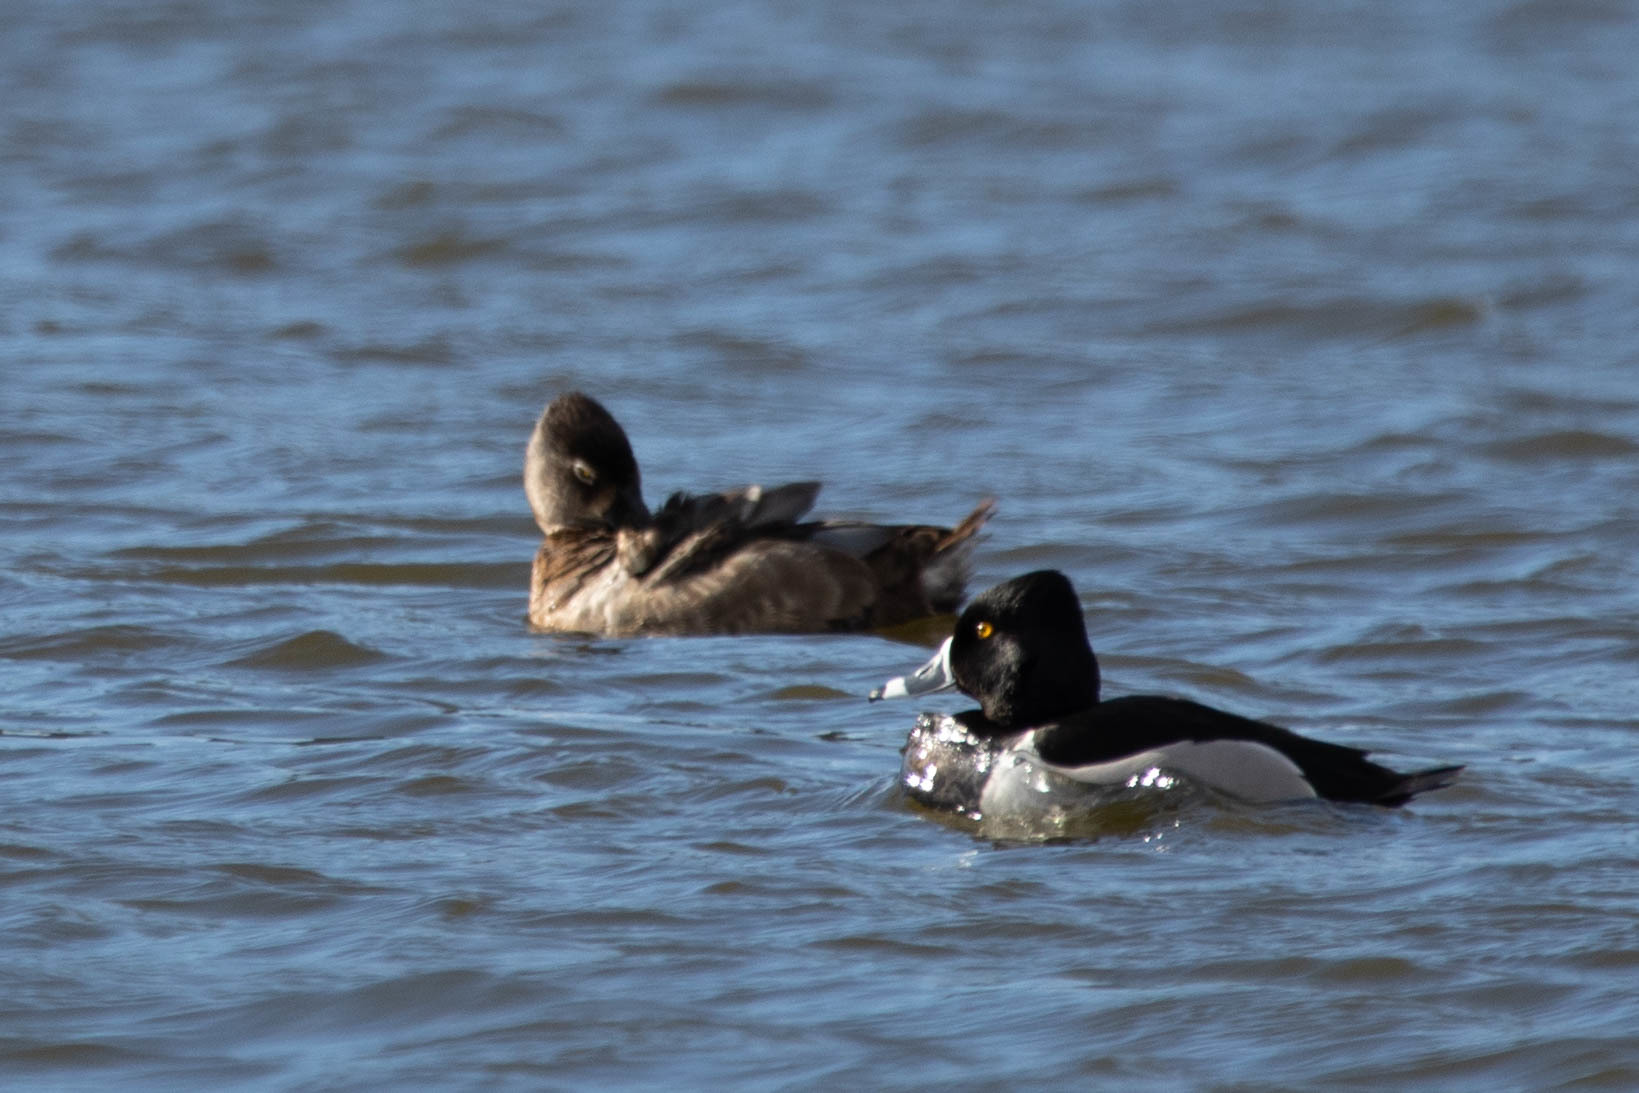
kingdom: Animalia
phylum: Chordata
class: Aves
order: Anseriformes
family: Anatidae
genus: Aythya
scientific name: Aythya collaris
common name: Ring-necked duck
